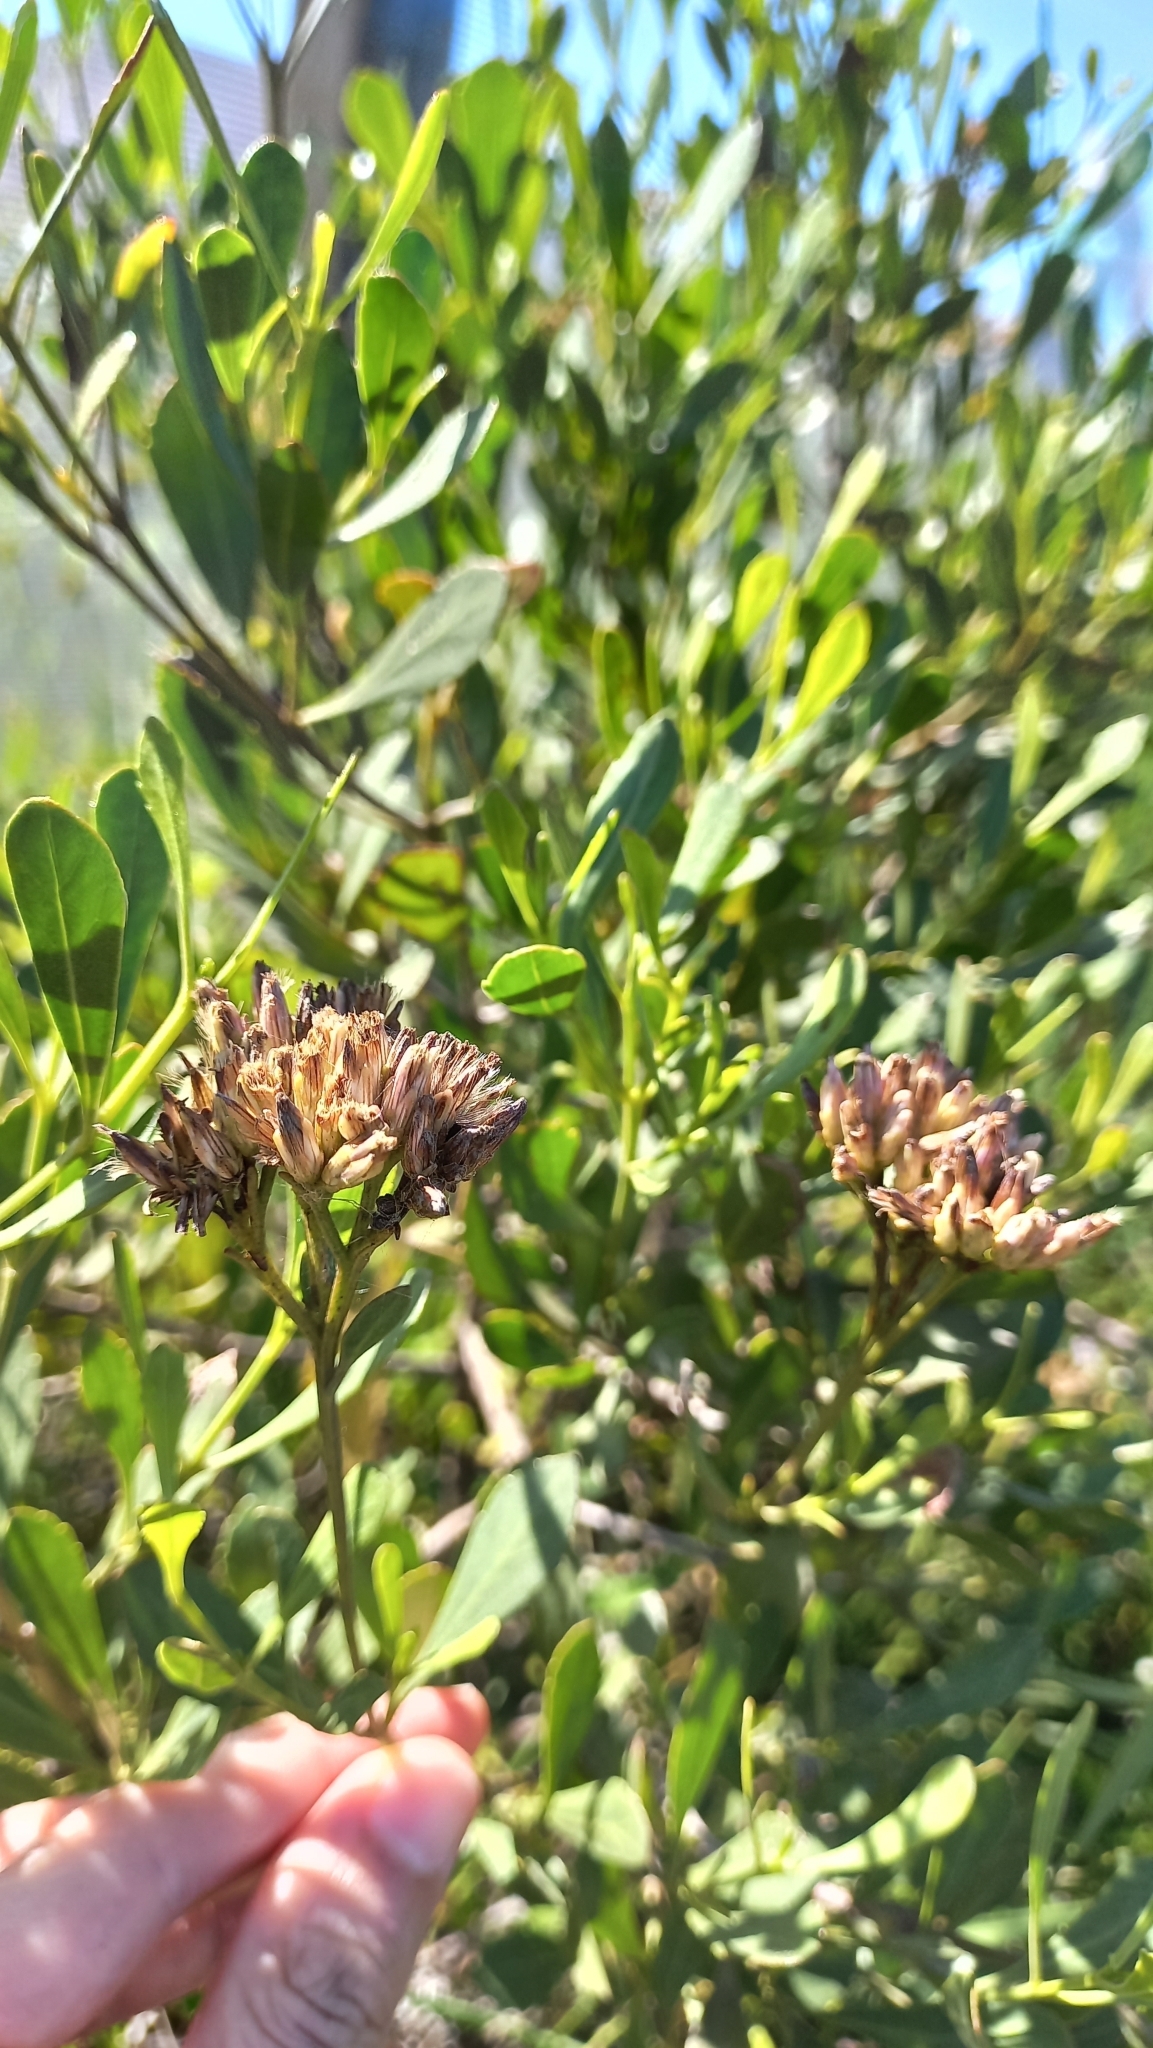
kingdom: Plantae
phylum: Tracheophyta
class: Magnoliopsida
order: Asterales
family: Asteraceae
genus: Symphyopappus
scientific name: Symphyopappus casarettoi
